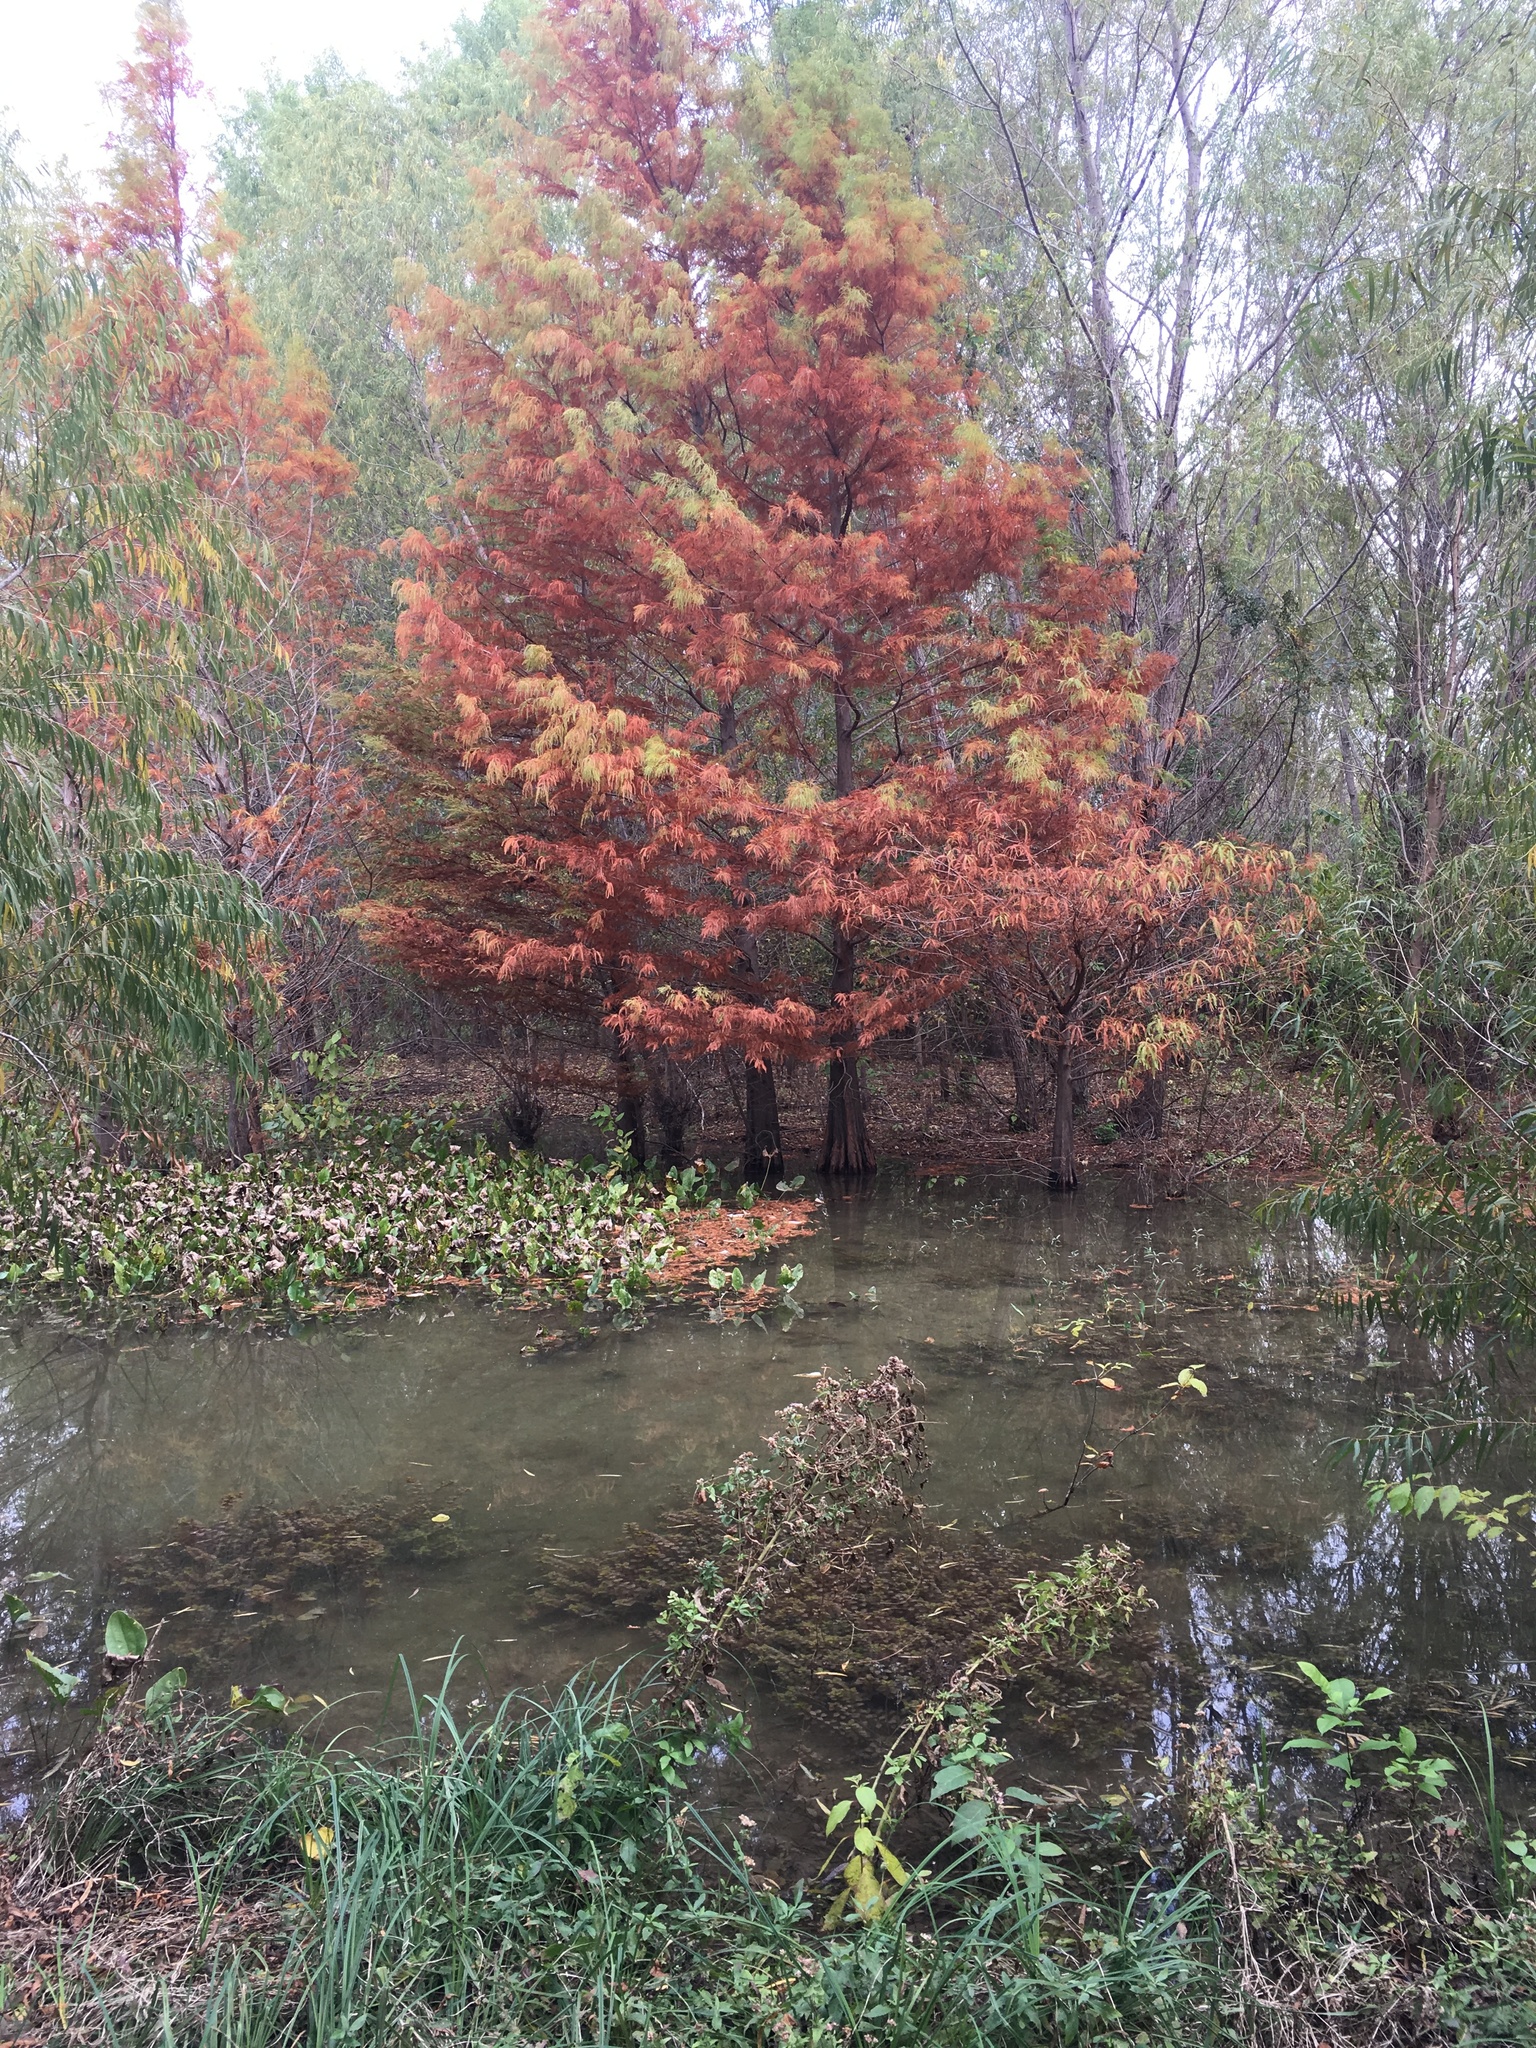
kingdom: Plantae
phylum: Tracheophyta
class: Pinopsida
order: Pinales
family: Cupressaceae
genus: Taxodium
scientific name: Taxodium distichum
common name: Bald cypress
